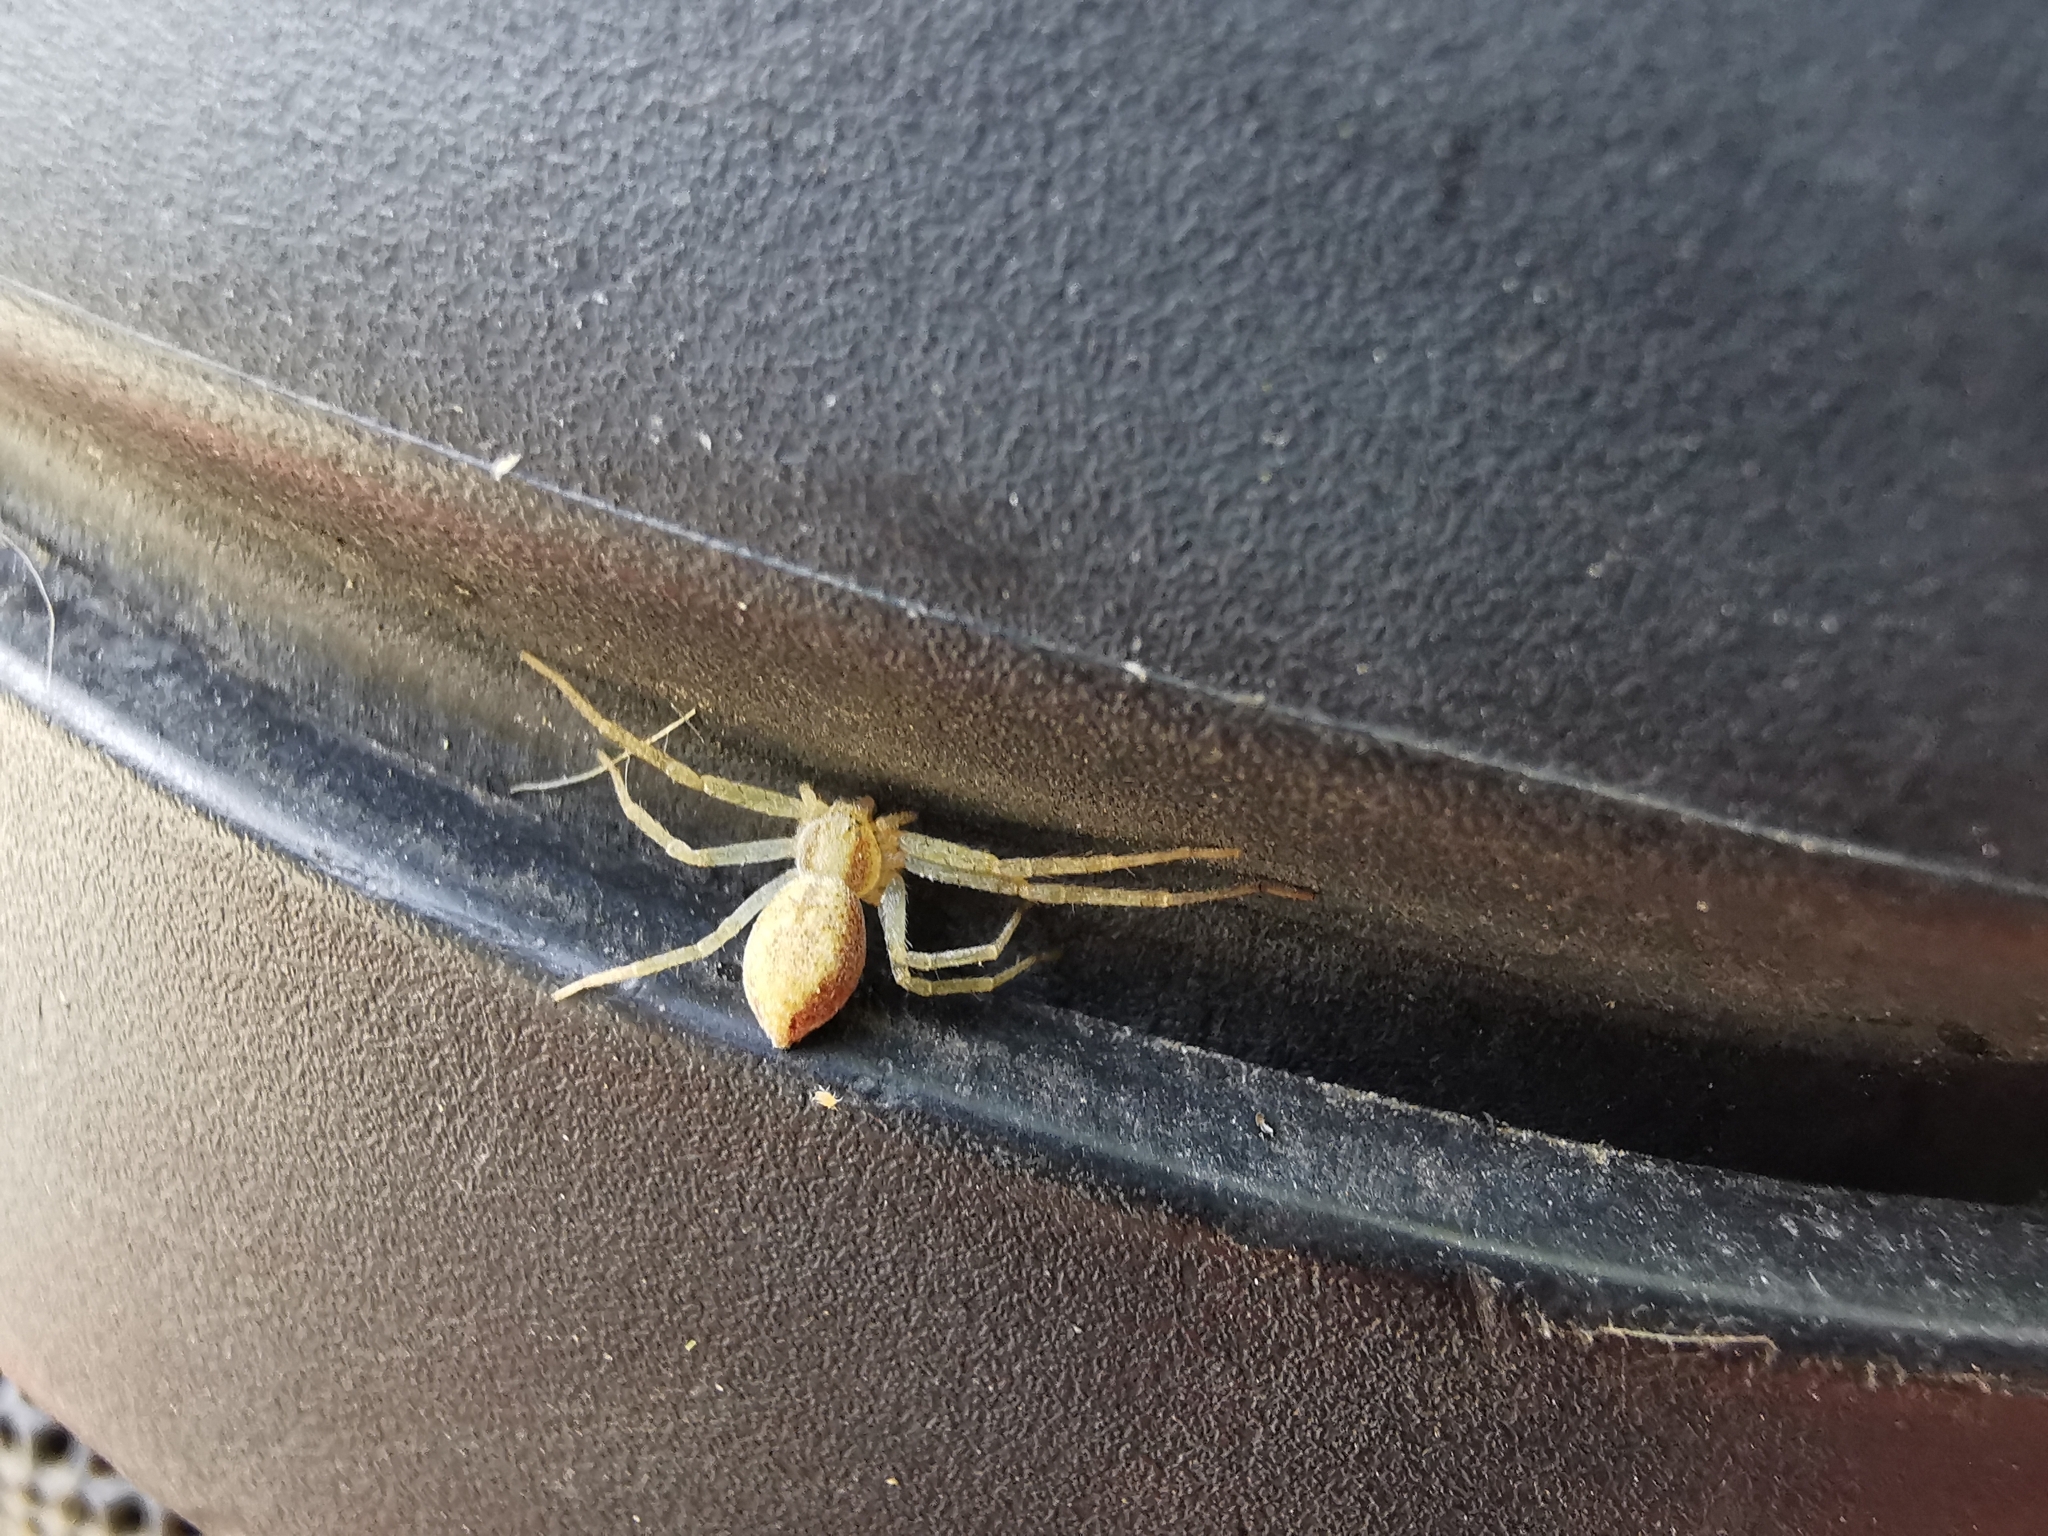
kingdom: Animalia
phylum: Arthropoda
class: Arachnida
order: Araneae
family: Philodromidae
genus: Philodromus
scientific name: Philodromus
